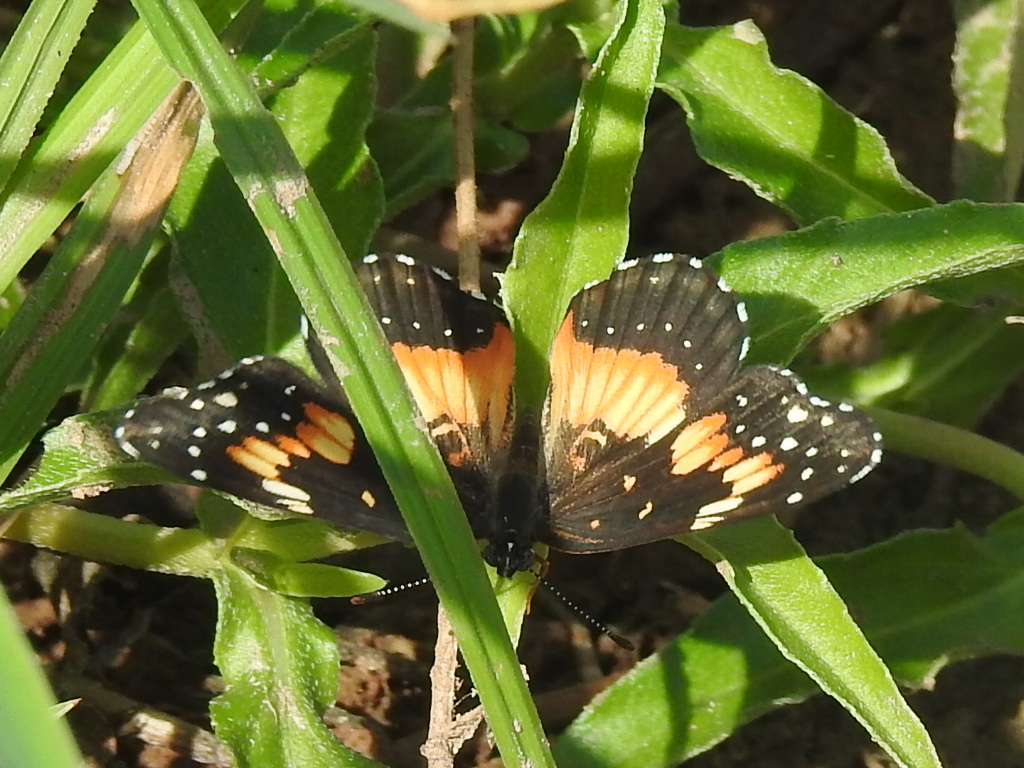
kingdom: Animalia
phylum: Arthropoda
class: Insecta
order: Lepidoptera
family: Nymphalidae
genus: Chlosyne
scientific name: Chlosyne lacinia
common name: Bordered patch
